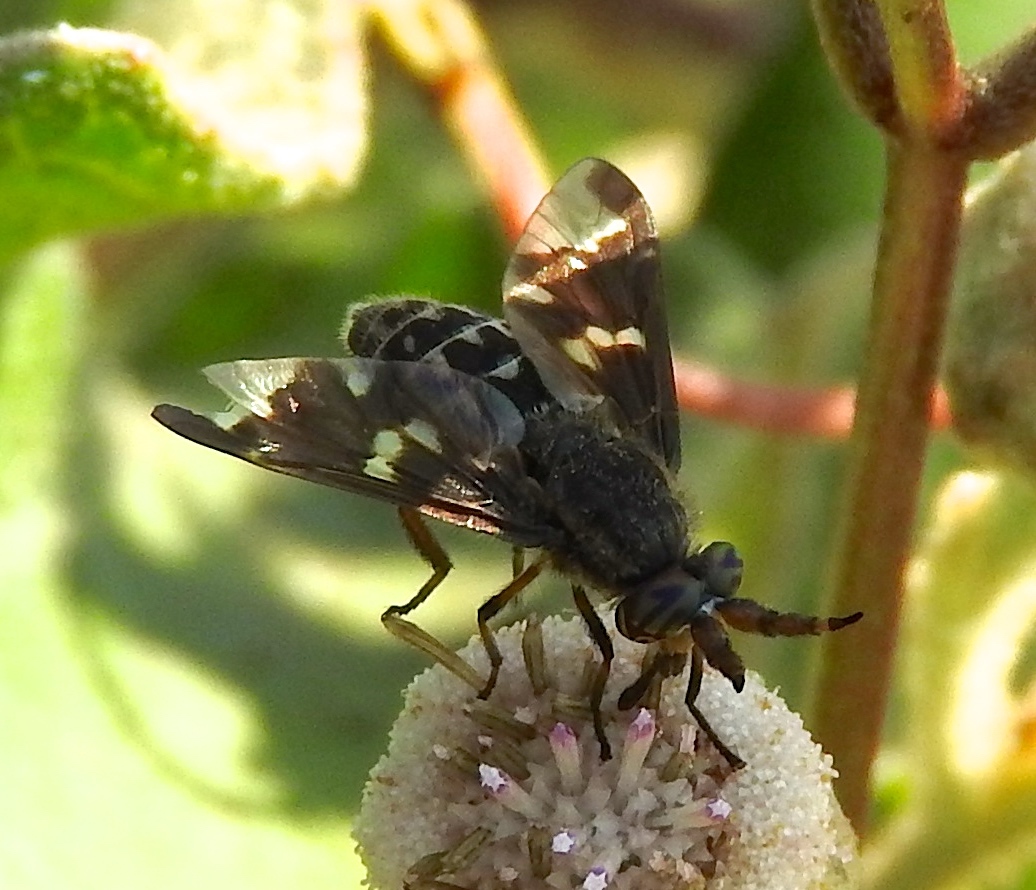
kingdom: Animalia
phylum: Arthropoda
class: Insecta
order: Diptera
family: Tabanidae
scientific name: Tabanidae
